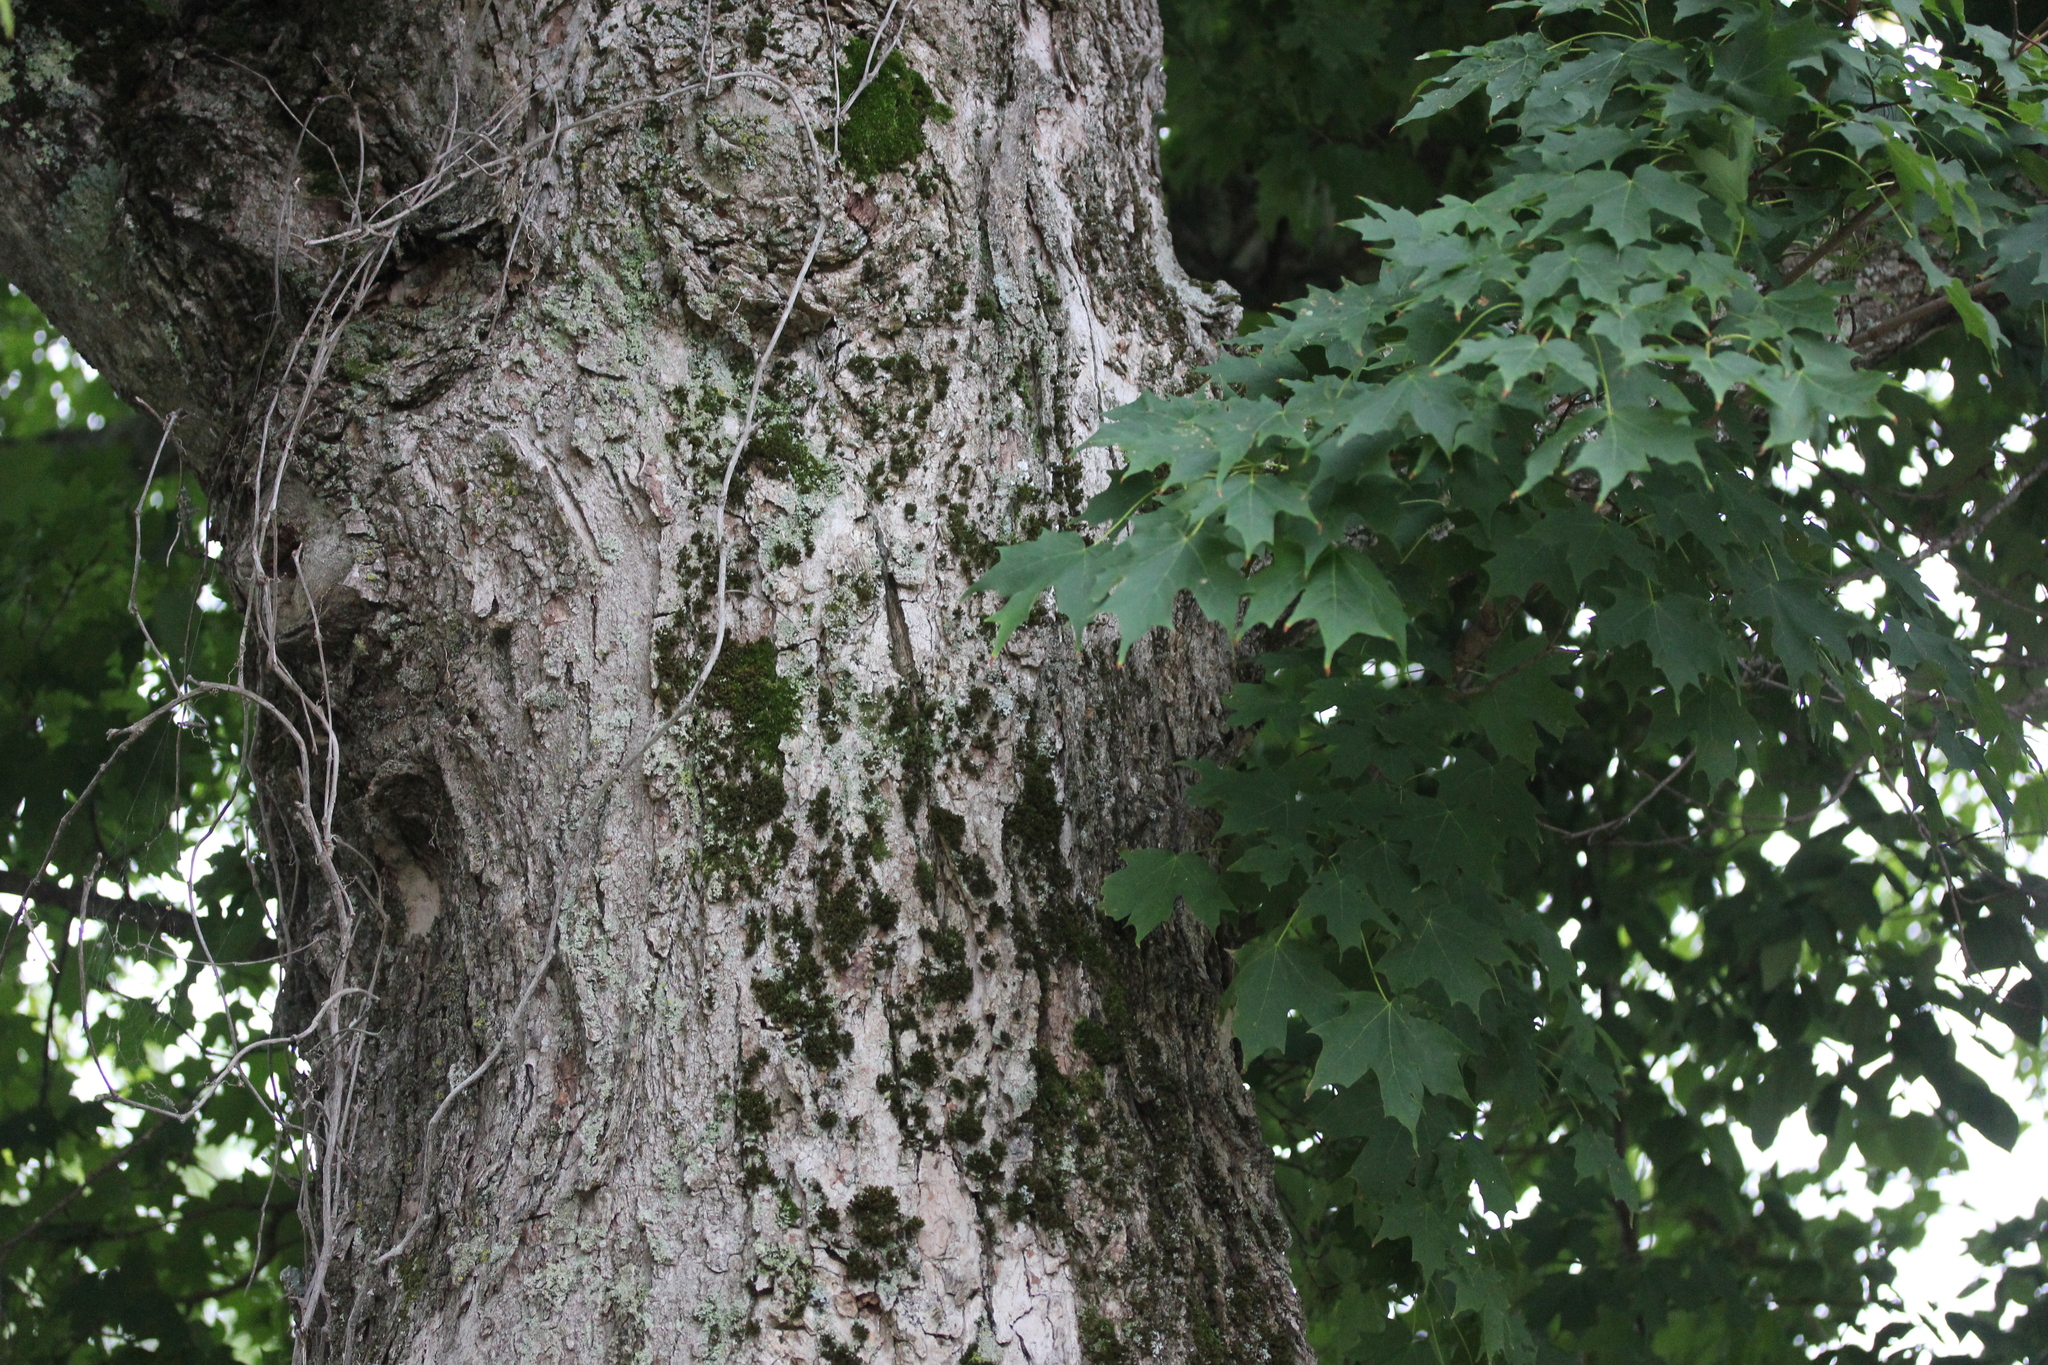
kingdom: Plantae
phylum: Tracheophyta
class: Magnoliopsida
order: Sapindales
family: Sapindaceae
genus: Acer
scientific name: Acer saccharum
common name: Sugar maple
